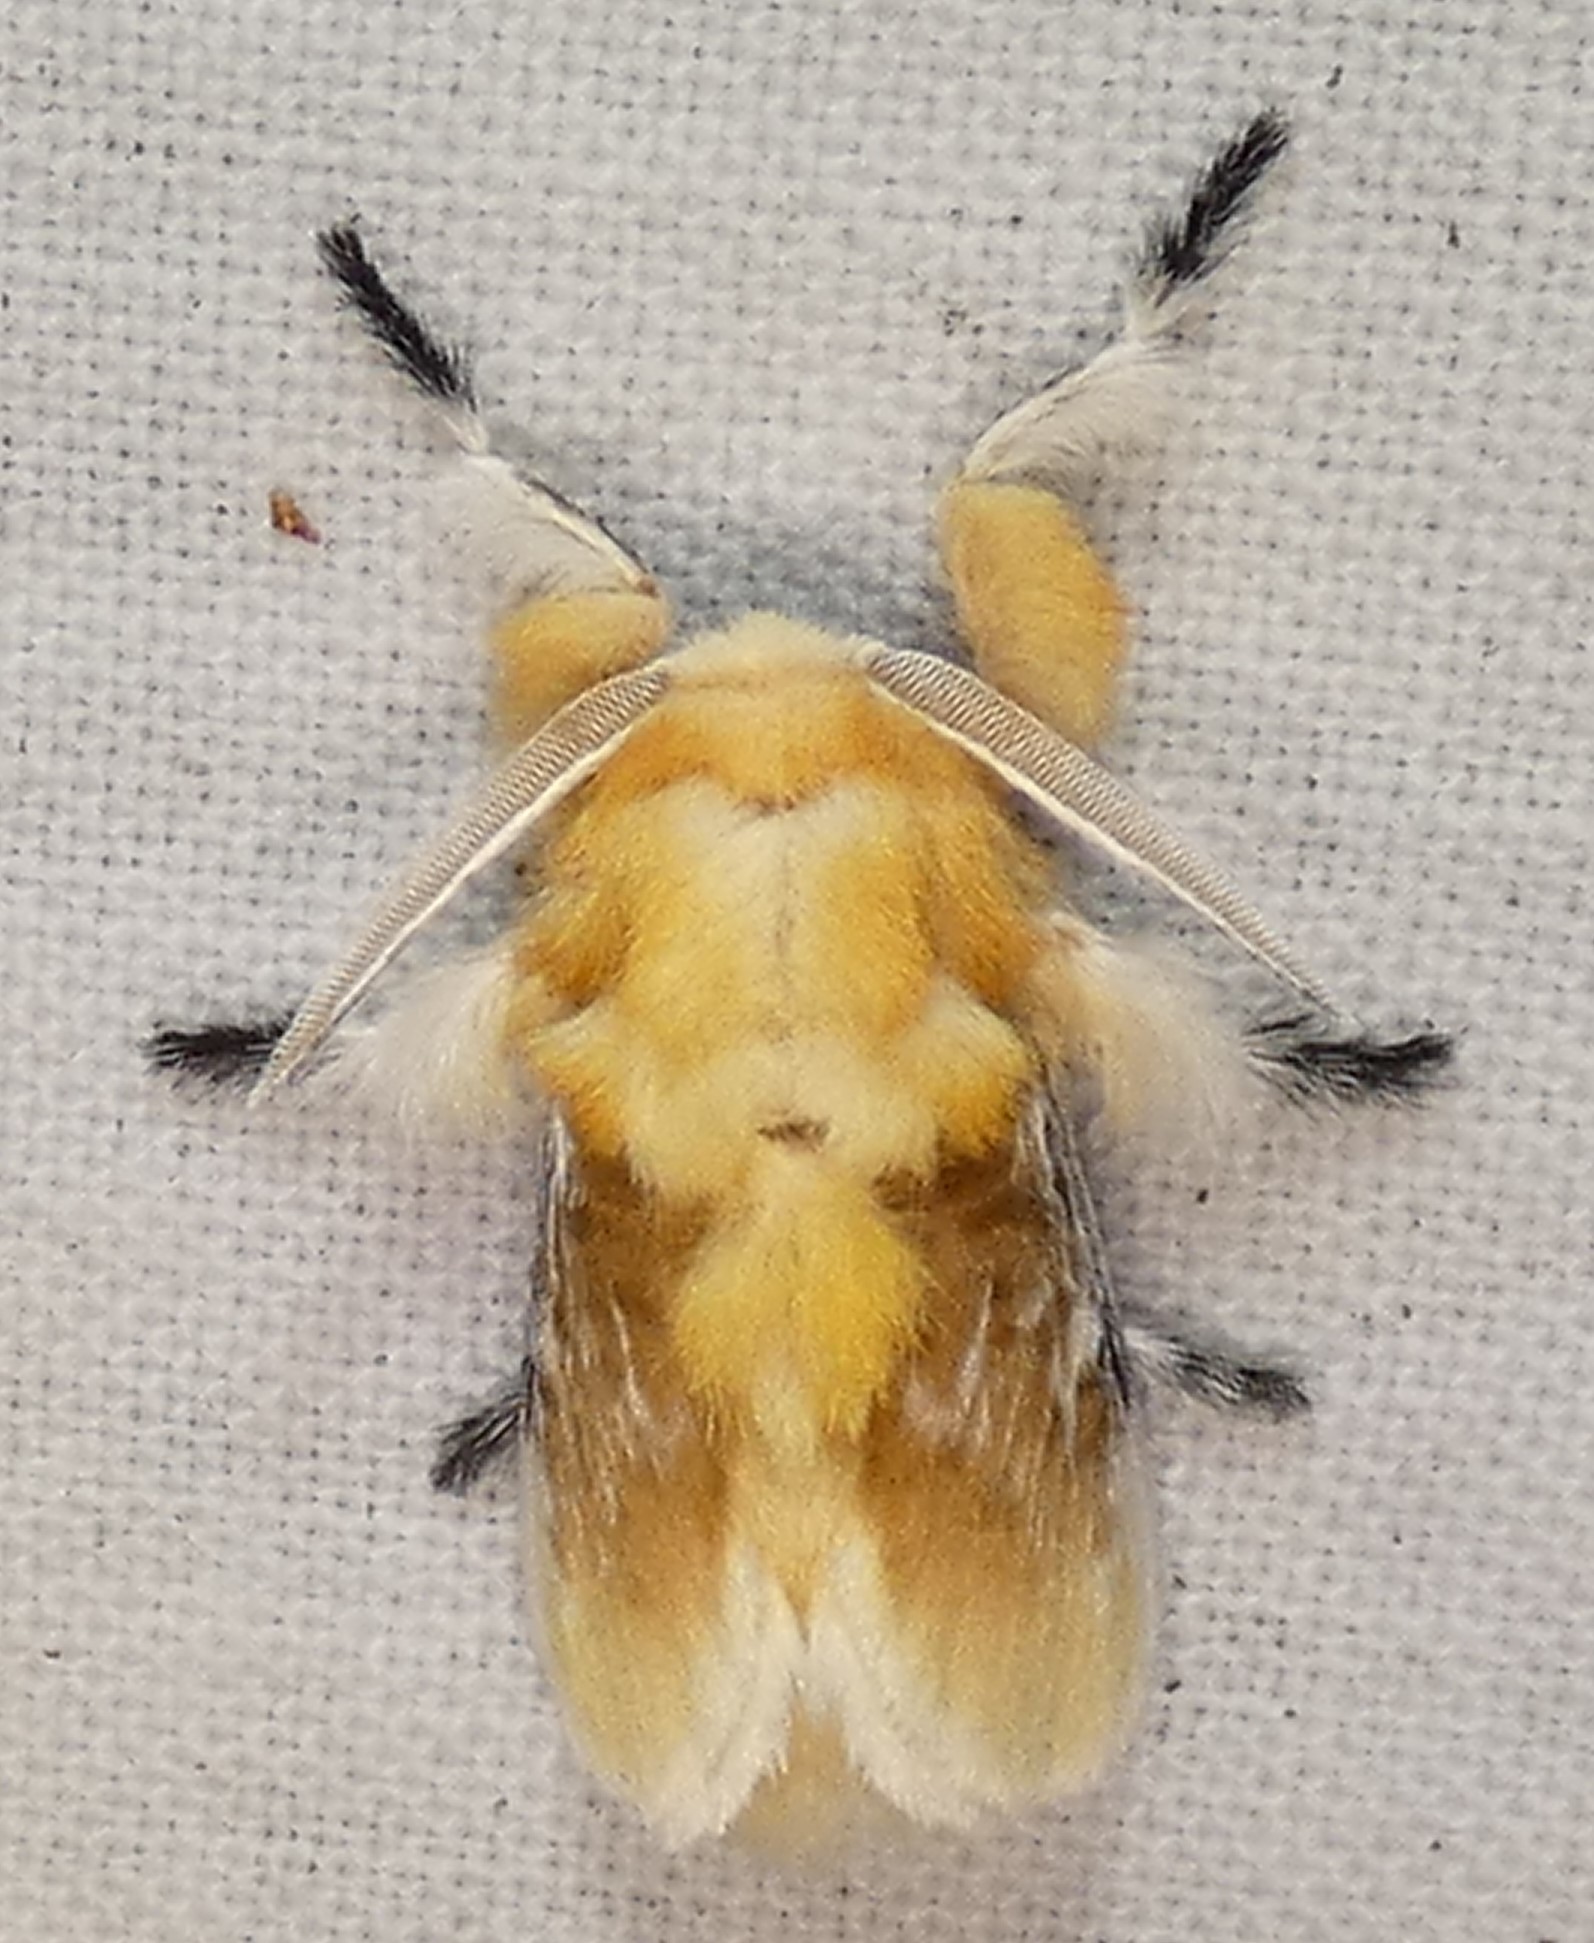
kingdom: Animalia
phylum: Arthropoda
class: Insecta
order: Lepidoptera
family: Megalopygidae
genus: Megalopyge
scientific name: Megalopyge opercularis
